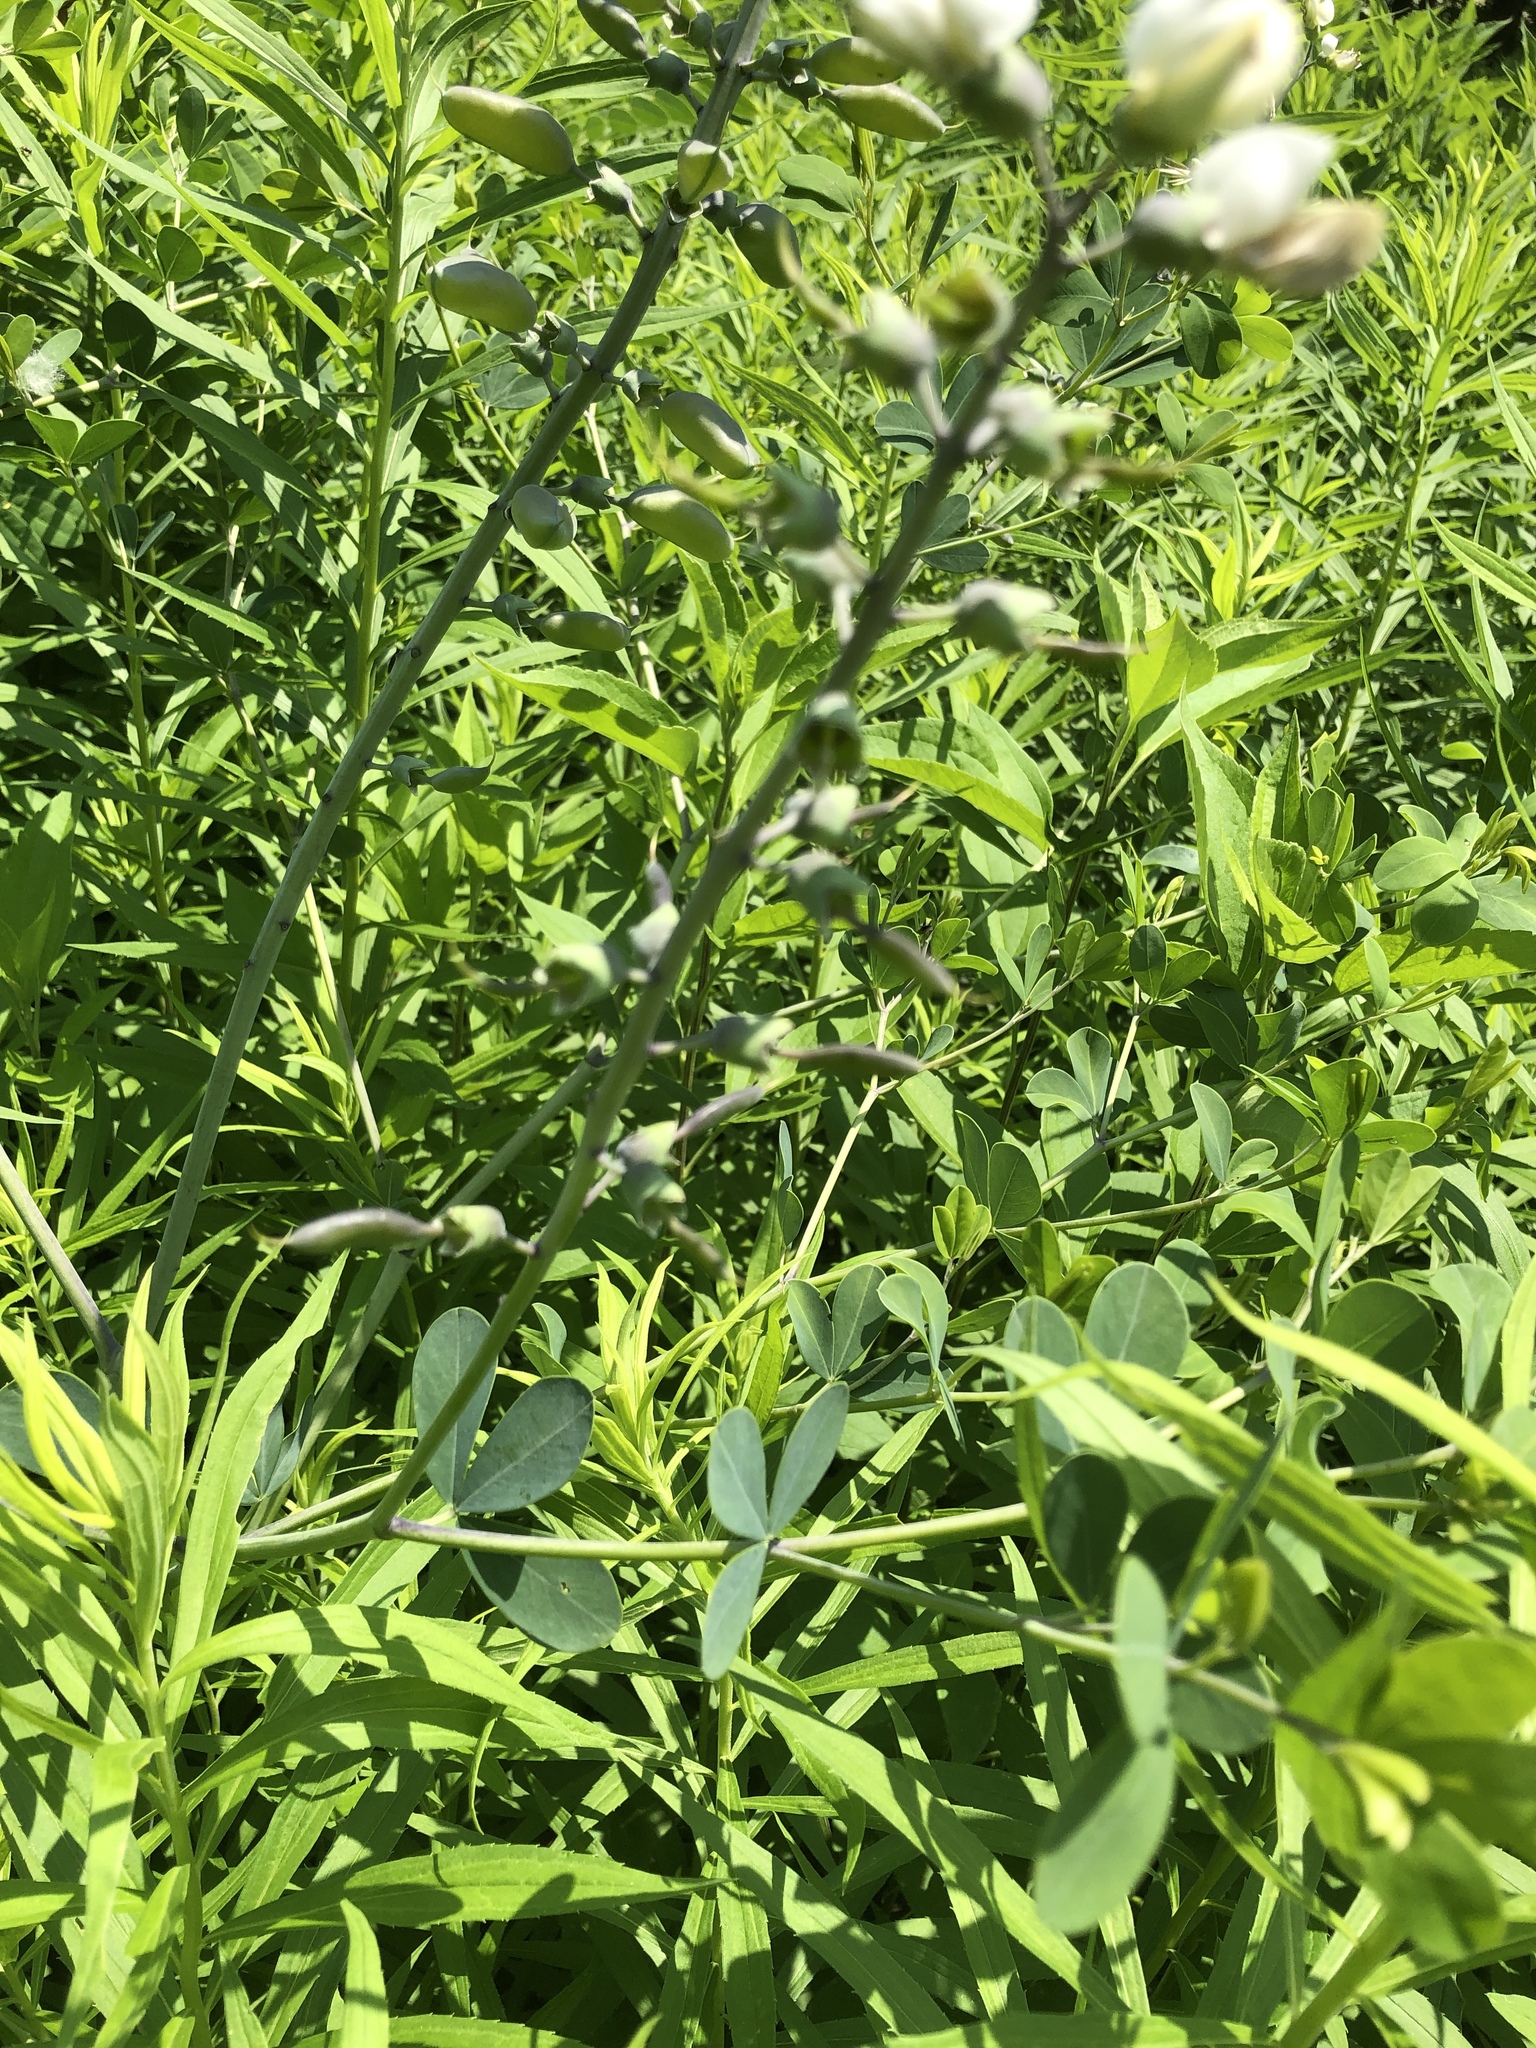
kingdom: Plantae
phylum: Tracheophyta
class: Magnoliopsida
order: Fabales
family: Fabaceae
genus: Baptisia
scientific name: Baptisia alba
